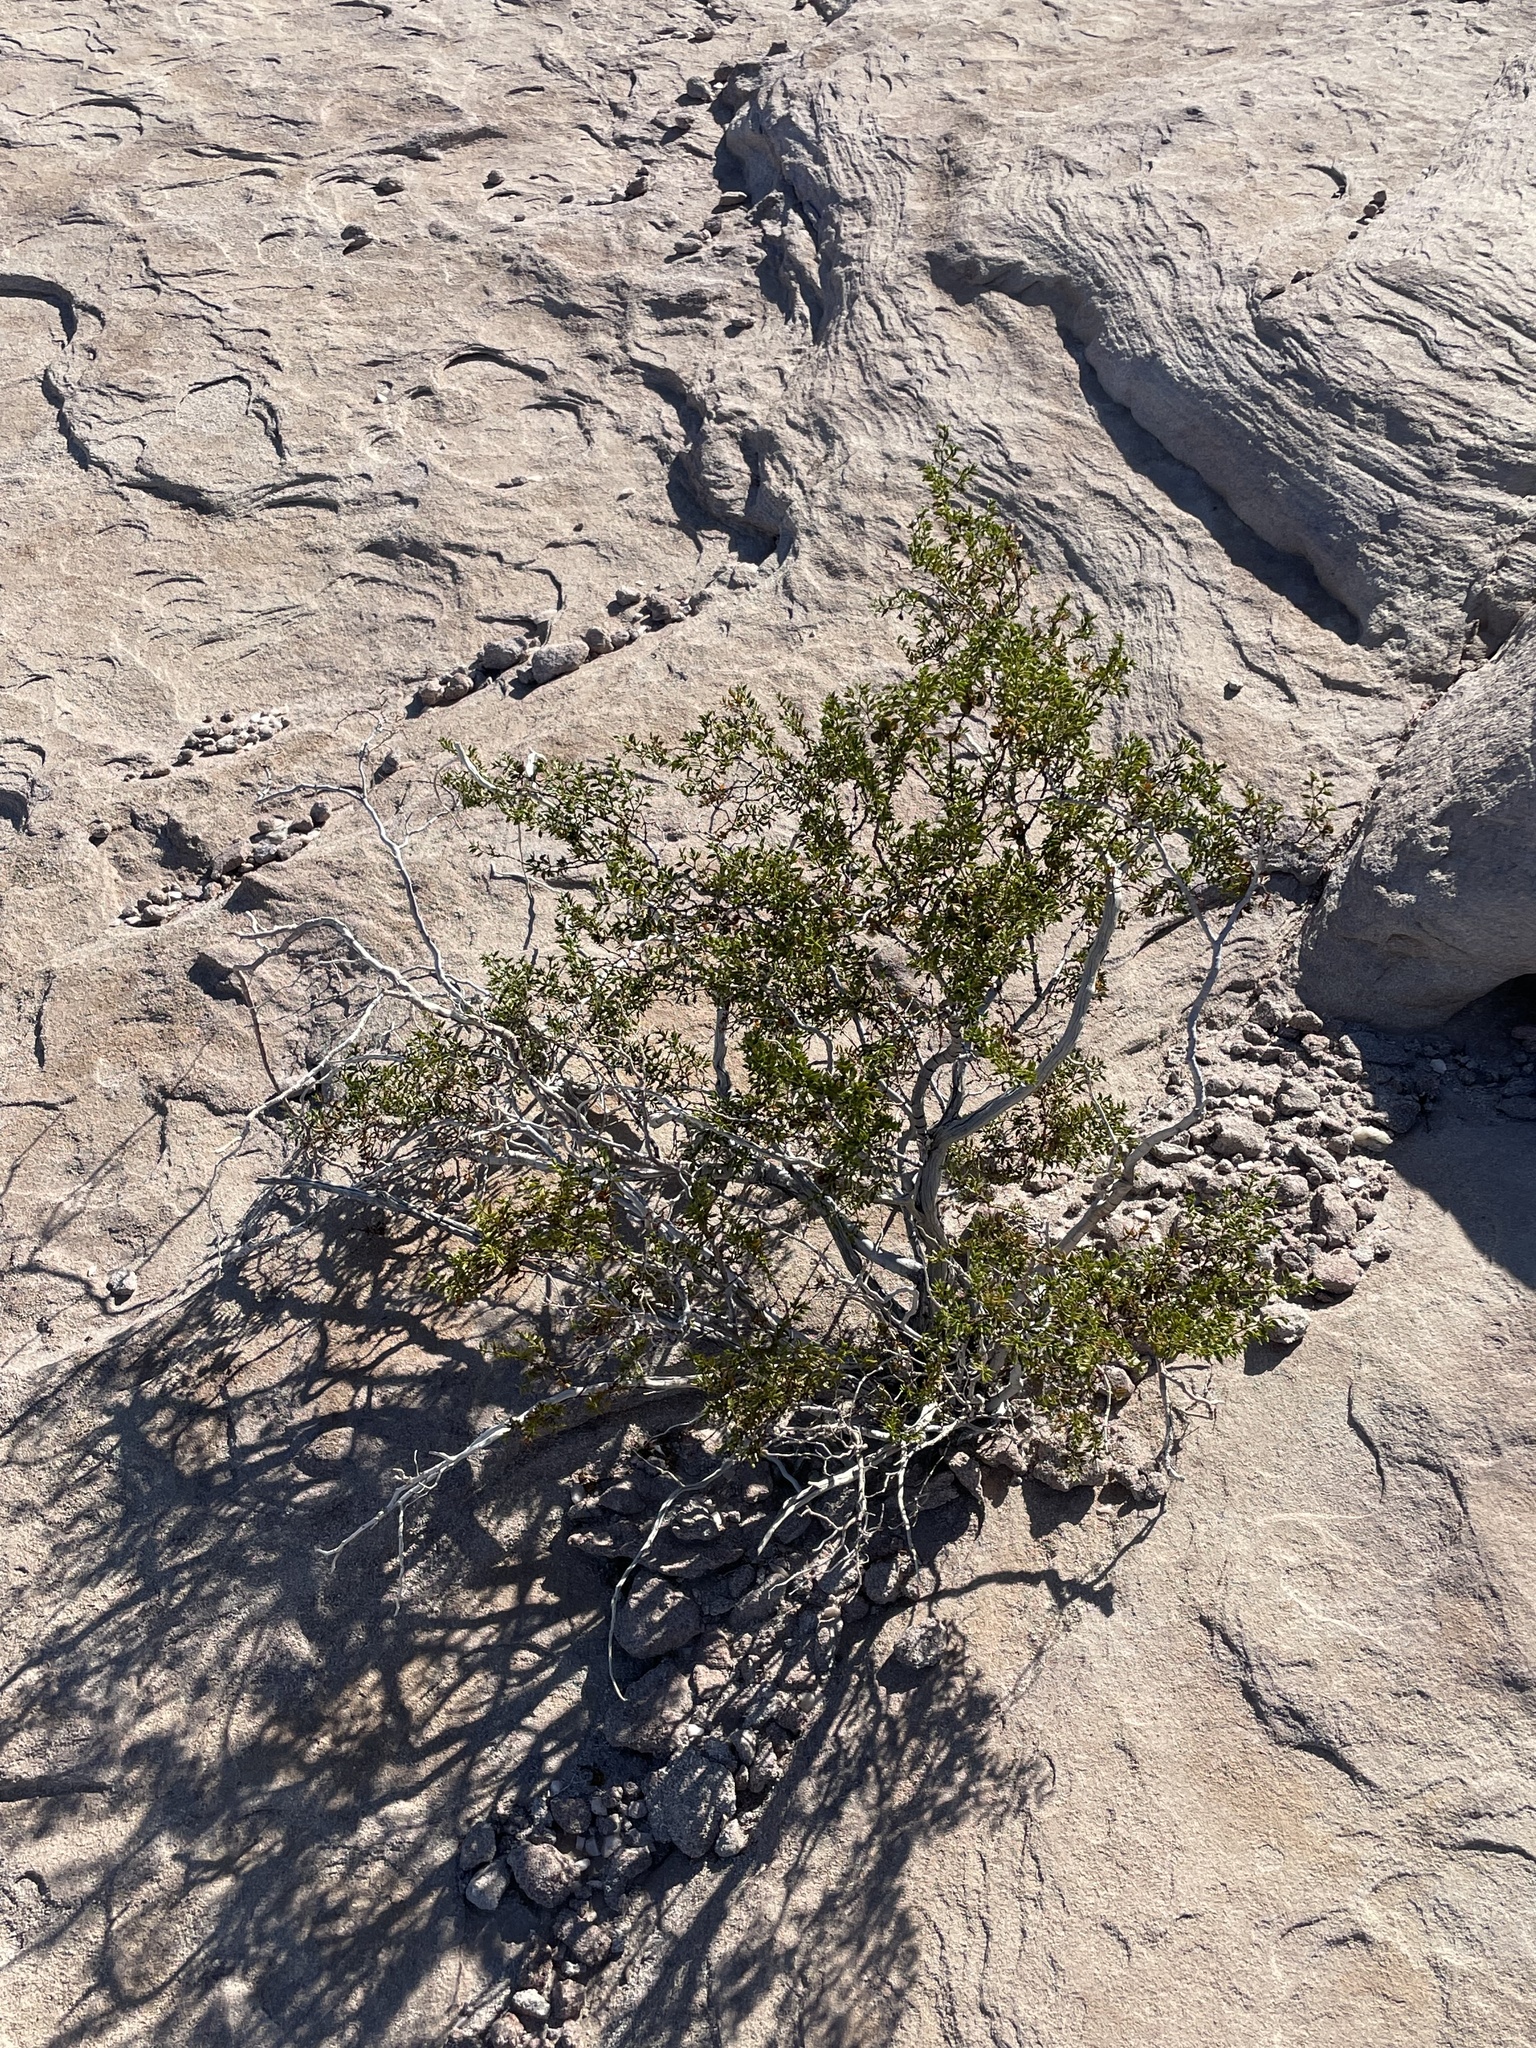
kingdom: Plantae
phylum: Tracheophyta
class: Magnoliopsida
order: Zygophyllales
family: Zygophyllaceae
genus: Larrea
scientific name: Larrea tridentata
